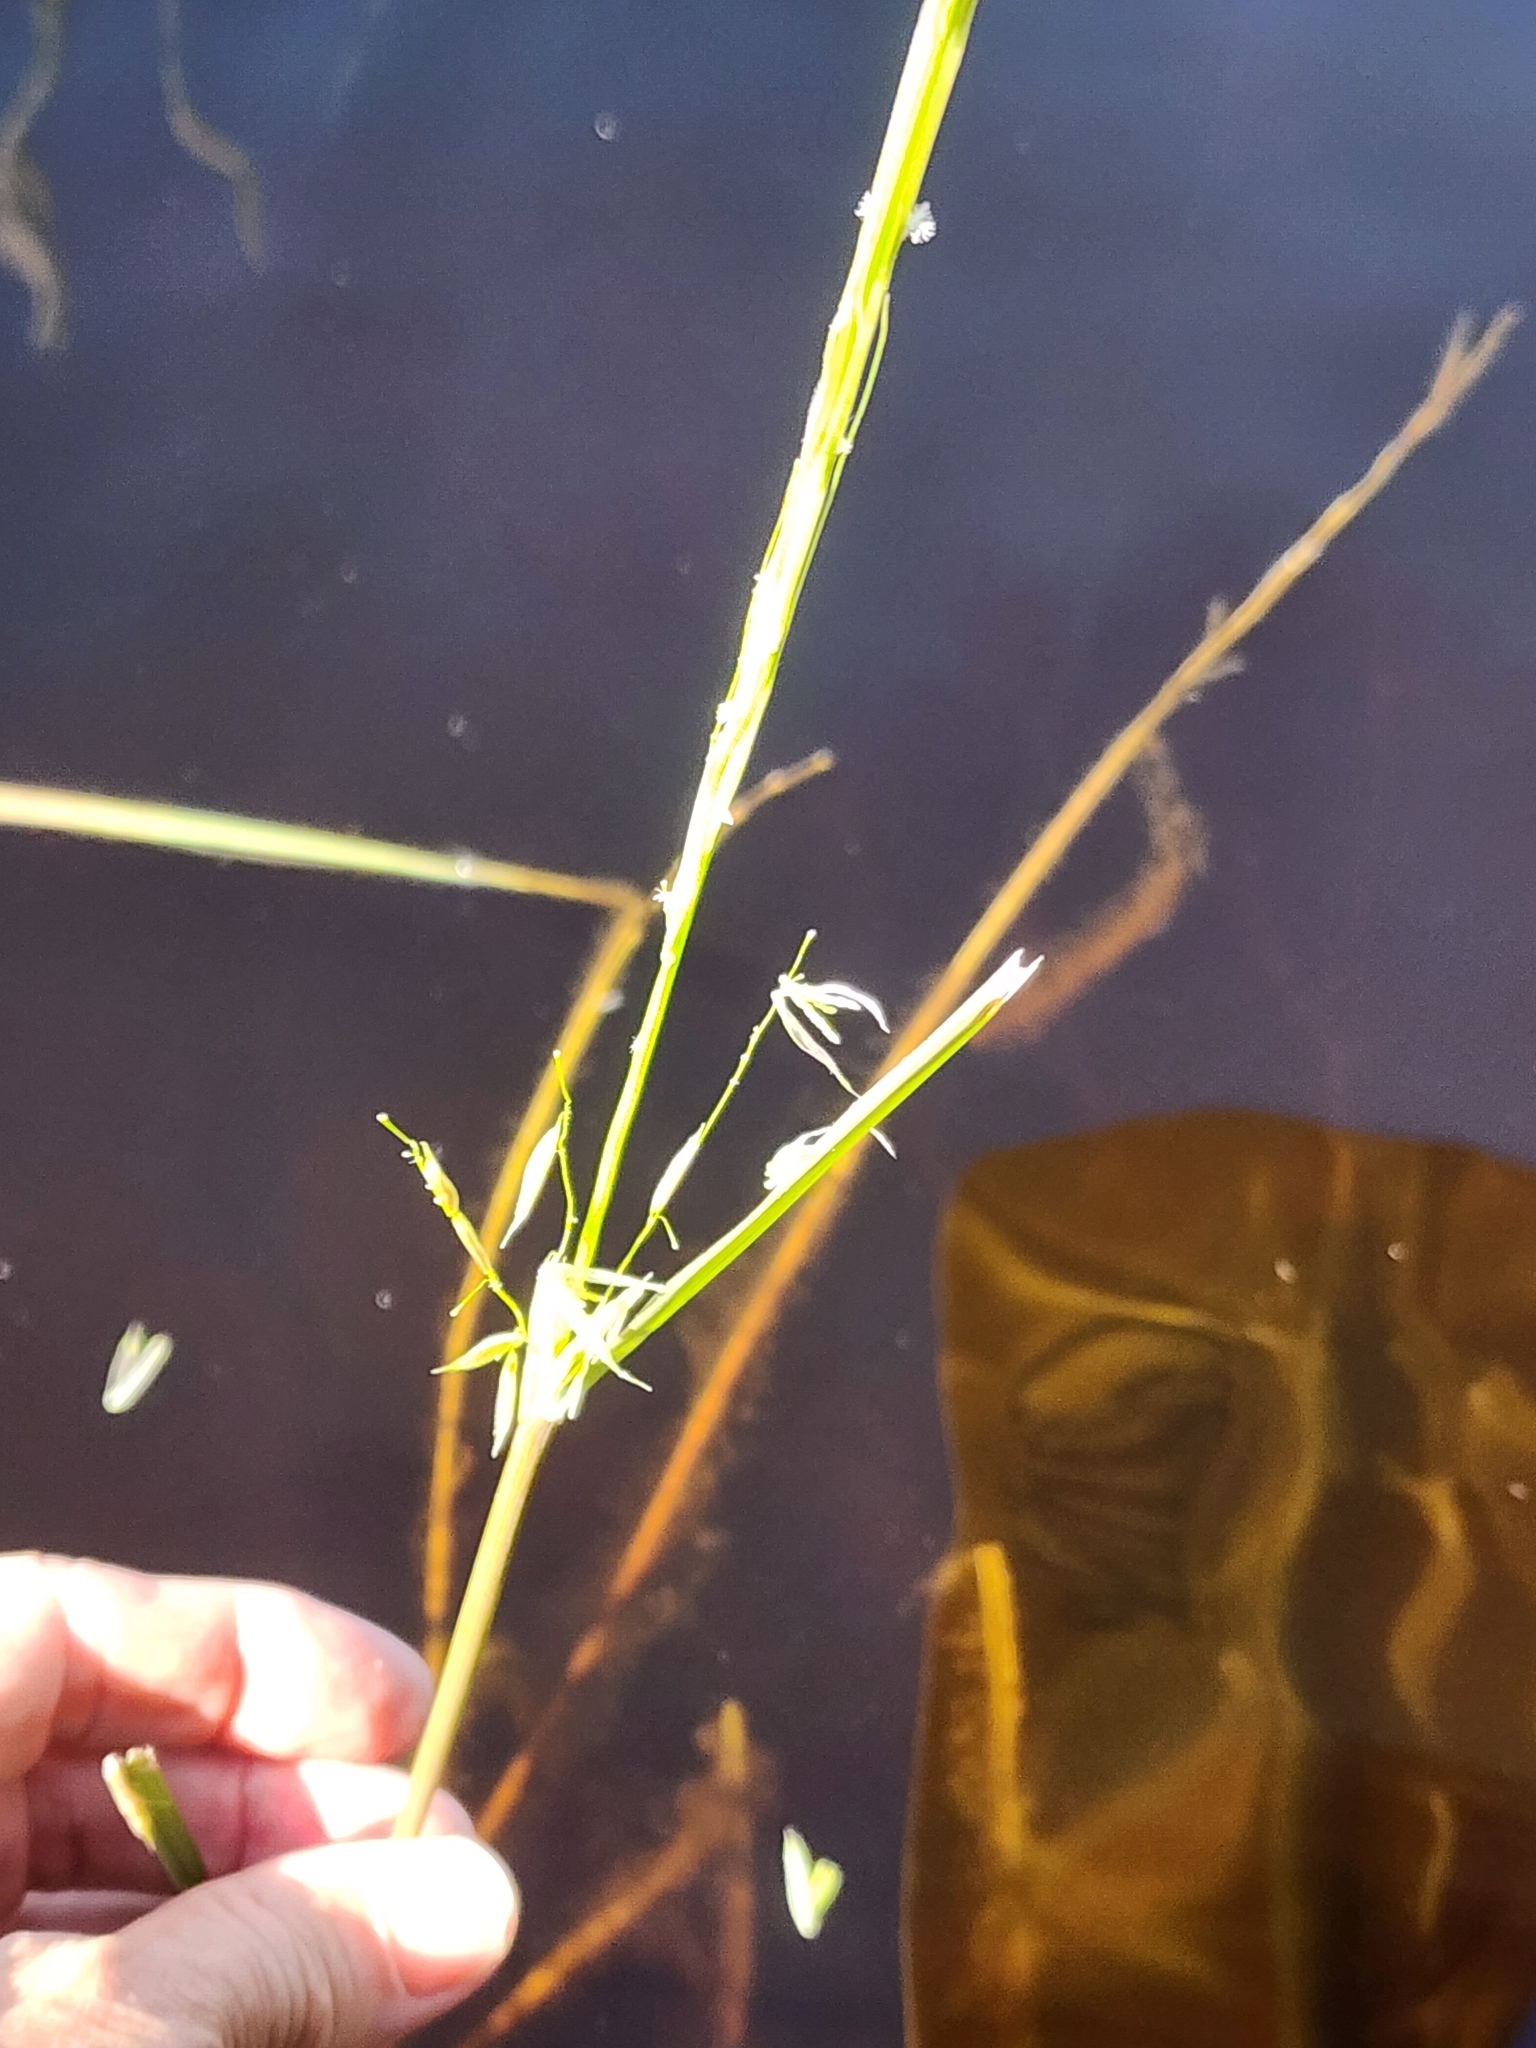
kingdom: Plantae
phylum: Tracheophyta
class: Liliopsida
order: Poales
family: Poaceae
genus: Zizania
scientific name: Zizania palustris
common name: Northern wild rice
